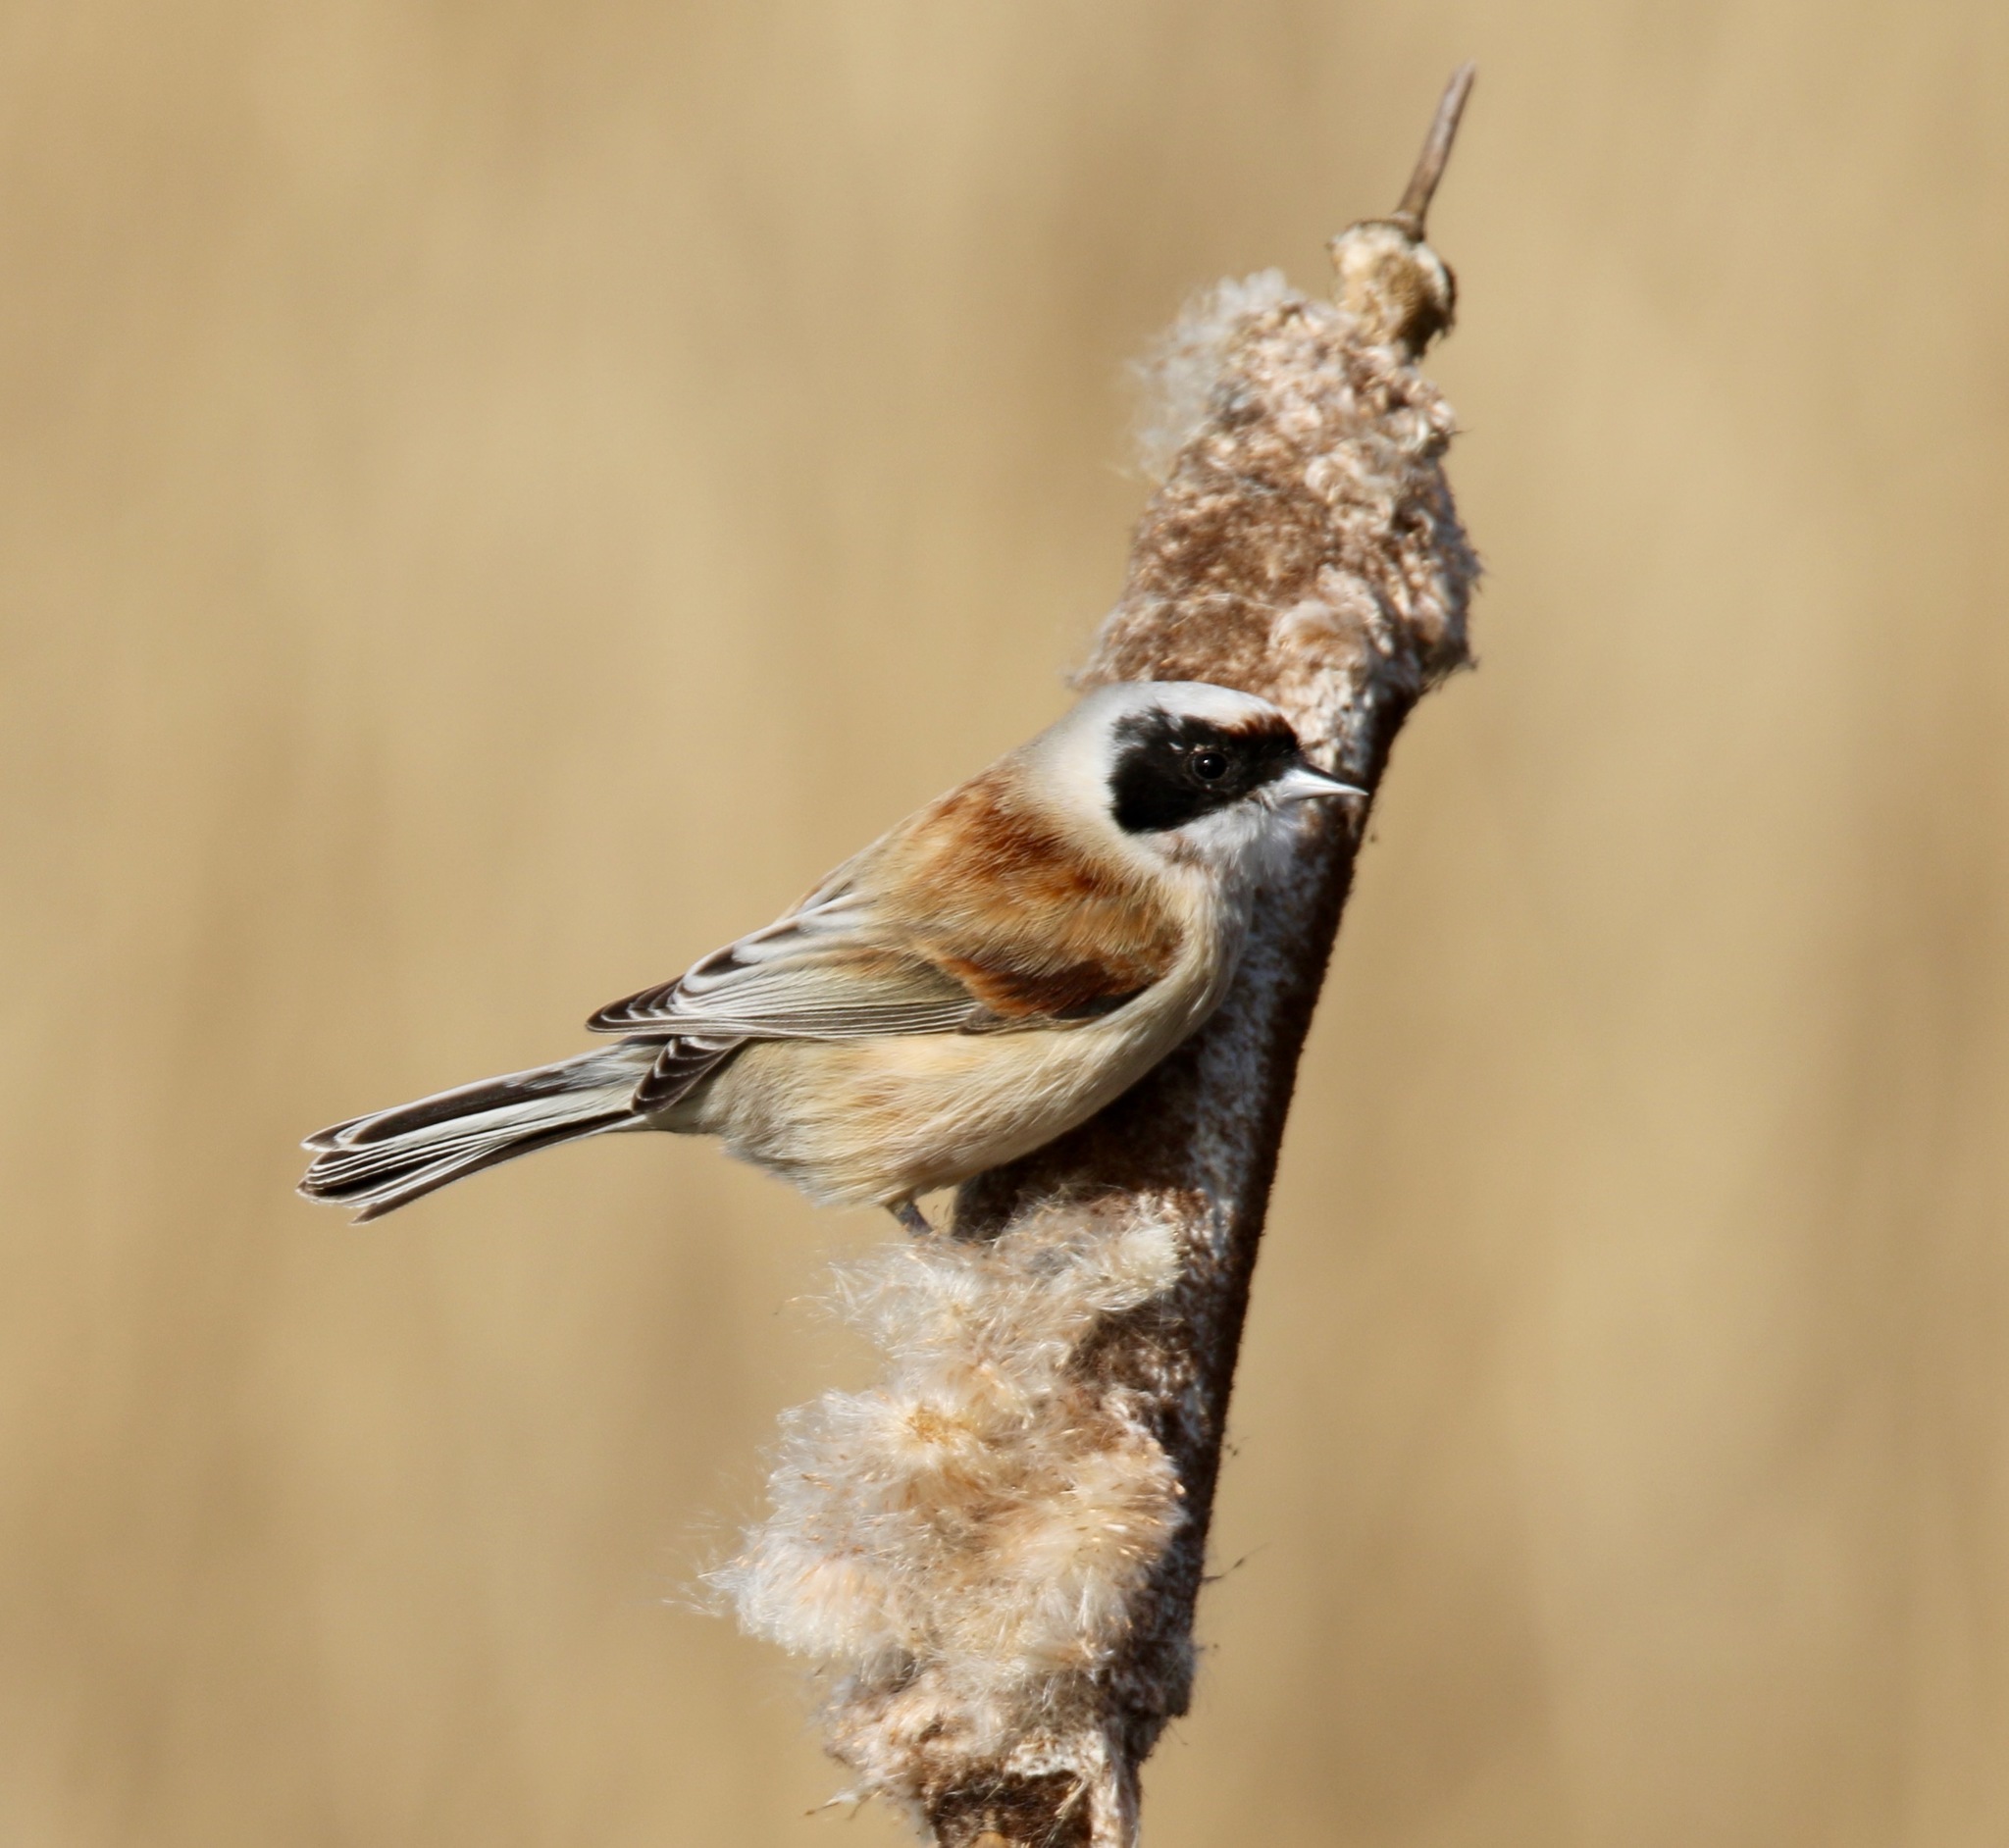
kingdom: Animalia
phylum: Chordata
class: Aves
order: Passeriformes
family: Remizidae
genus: Remiz
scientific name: Remiz pendulinus
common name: Eurasian penduline tit
